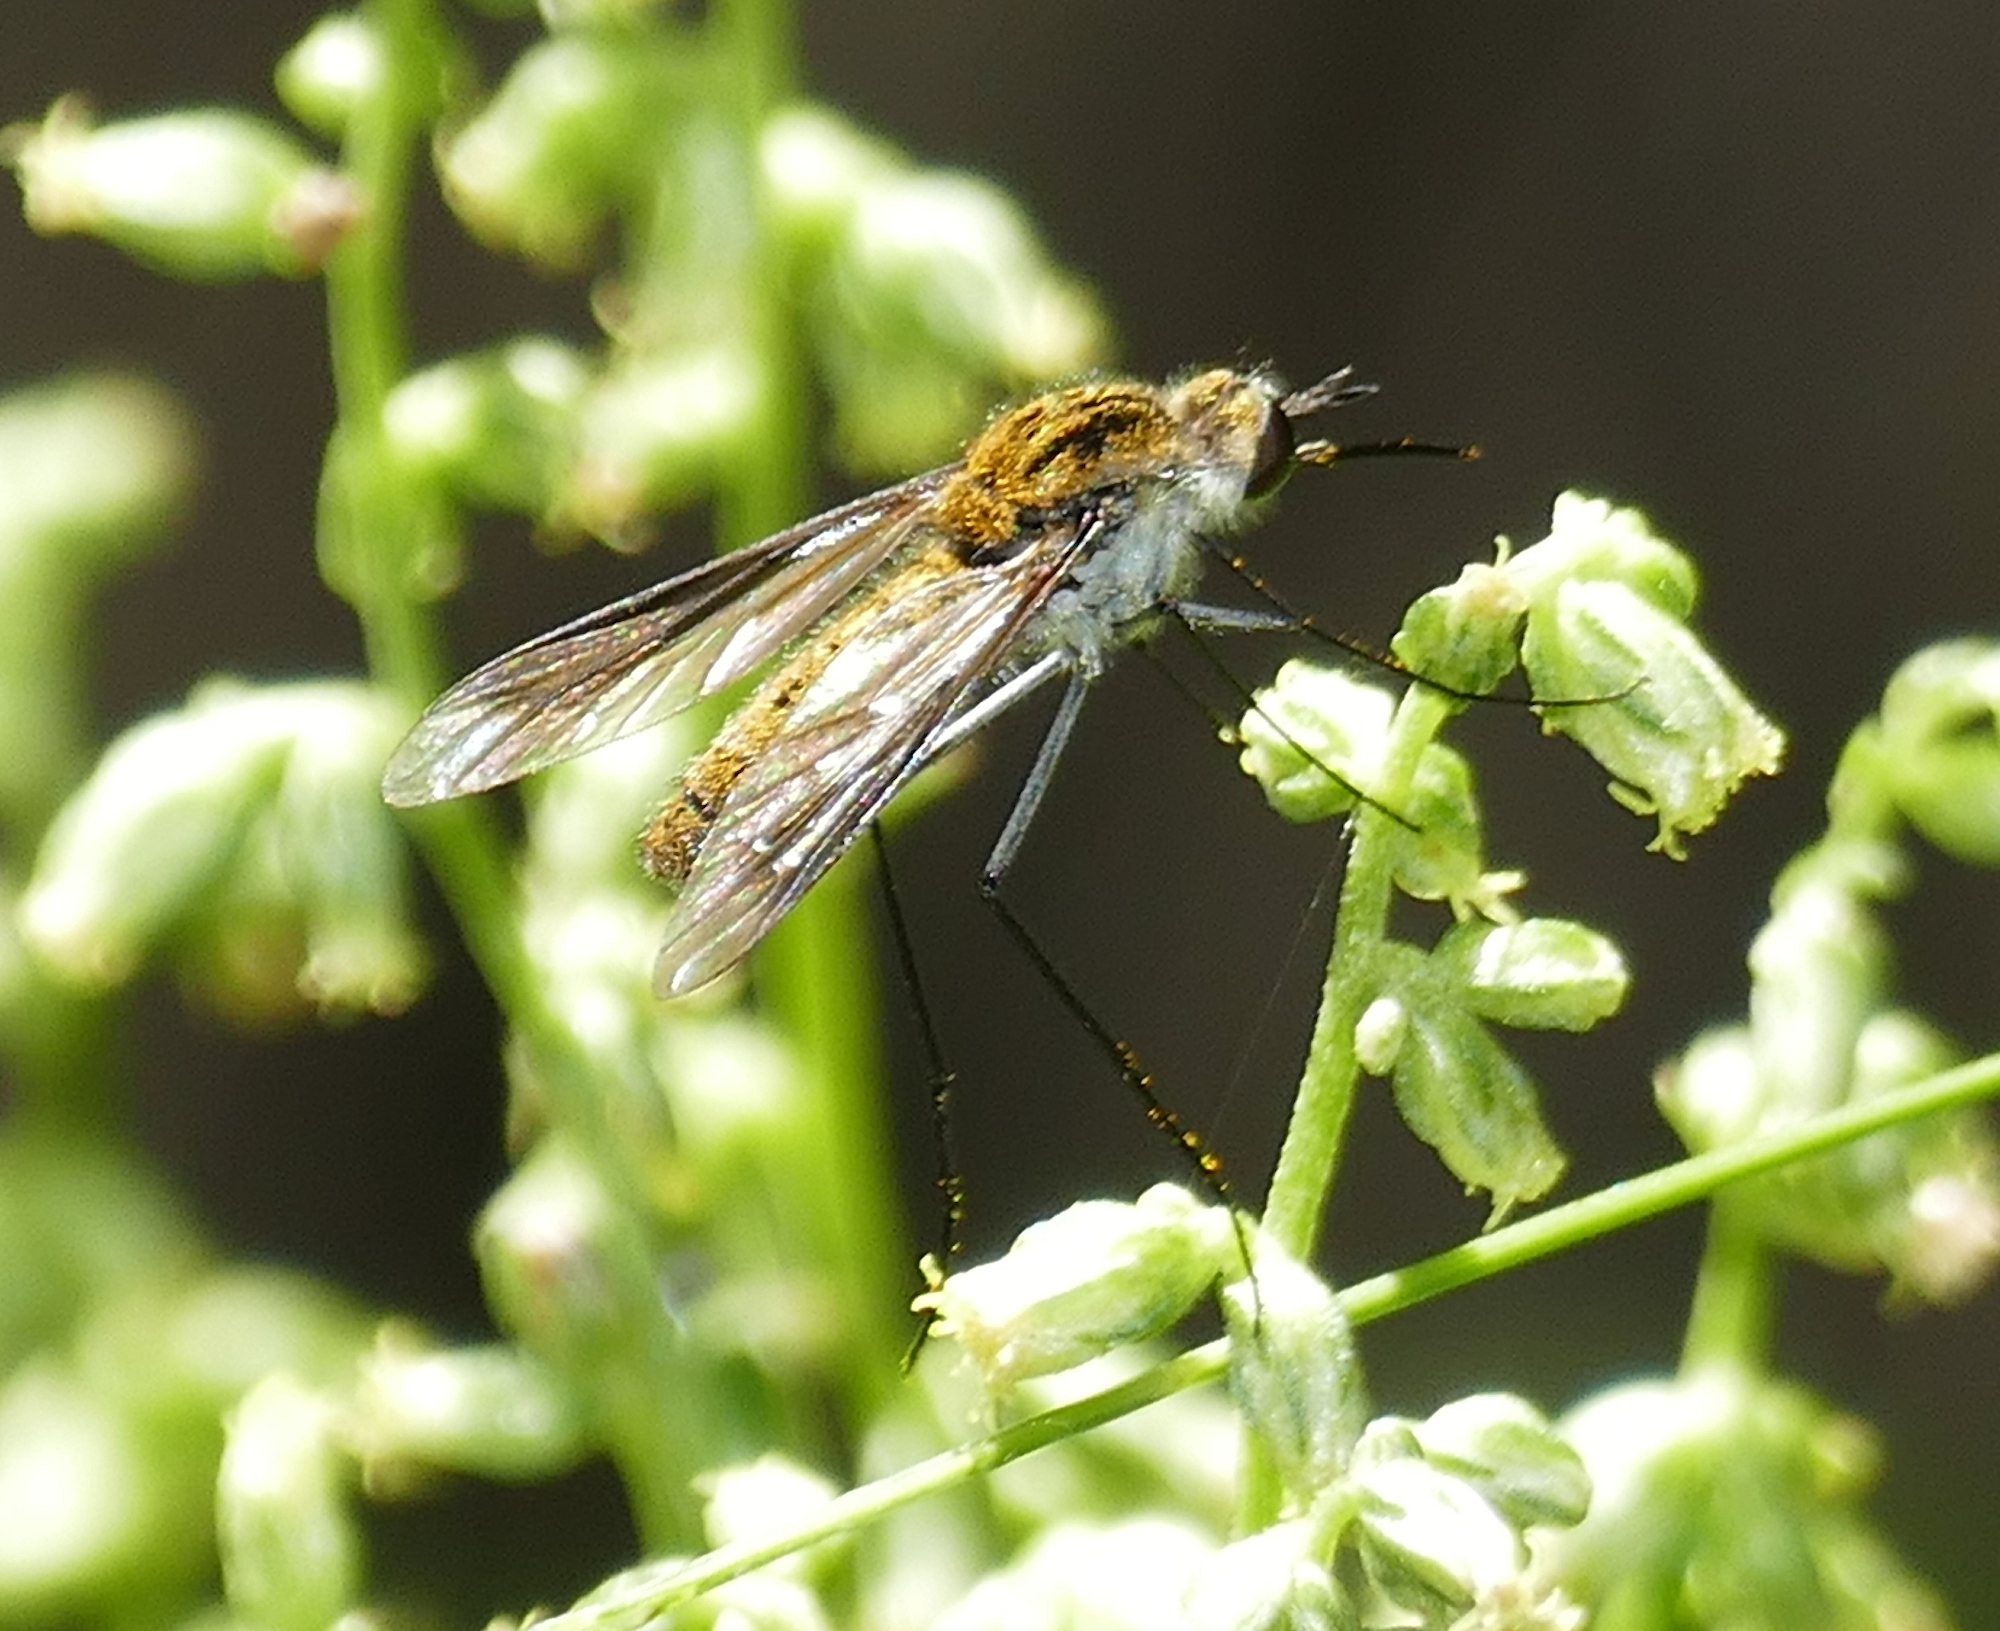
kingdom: Animalia
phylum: Arthropoda
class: Insecta
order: Diptera
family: Bombyliidae
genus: Thevenetimyia
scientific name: Thevenetimyia speciosa
